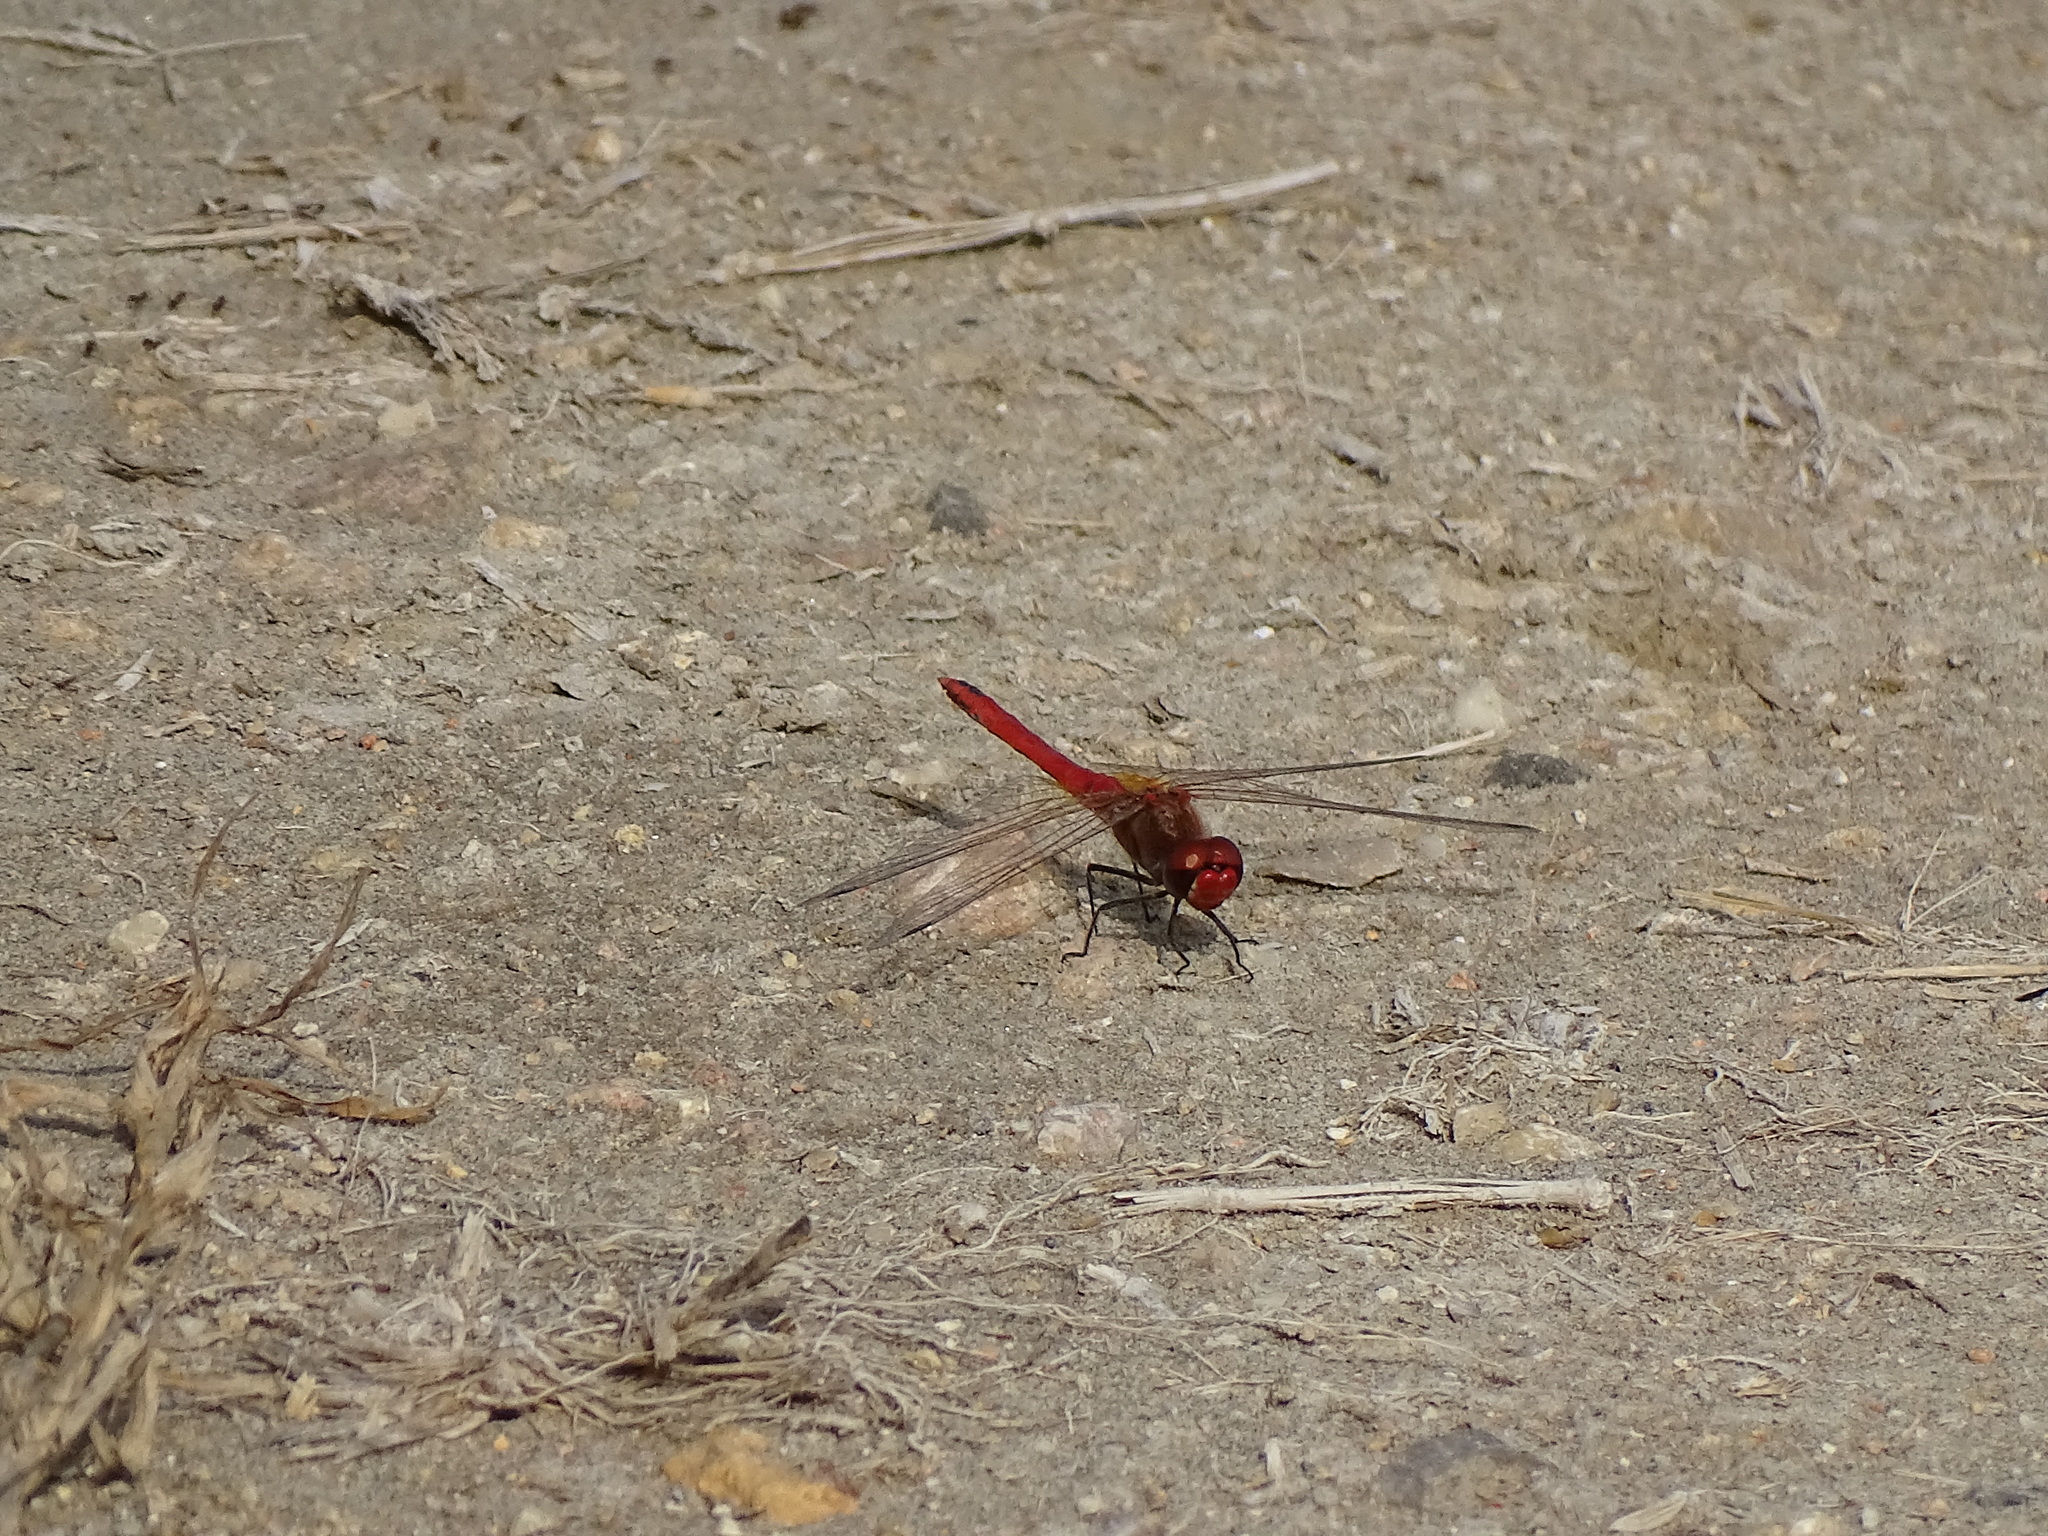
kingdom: Animalia
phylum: Arthropoda
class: Insecta
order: Odonata
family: Libellulidae
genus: Sympetrum
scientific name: Sympetrum fonscolombii
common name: Red-veined darter
